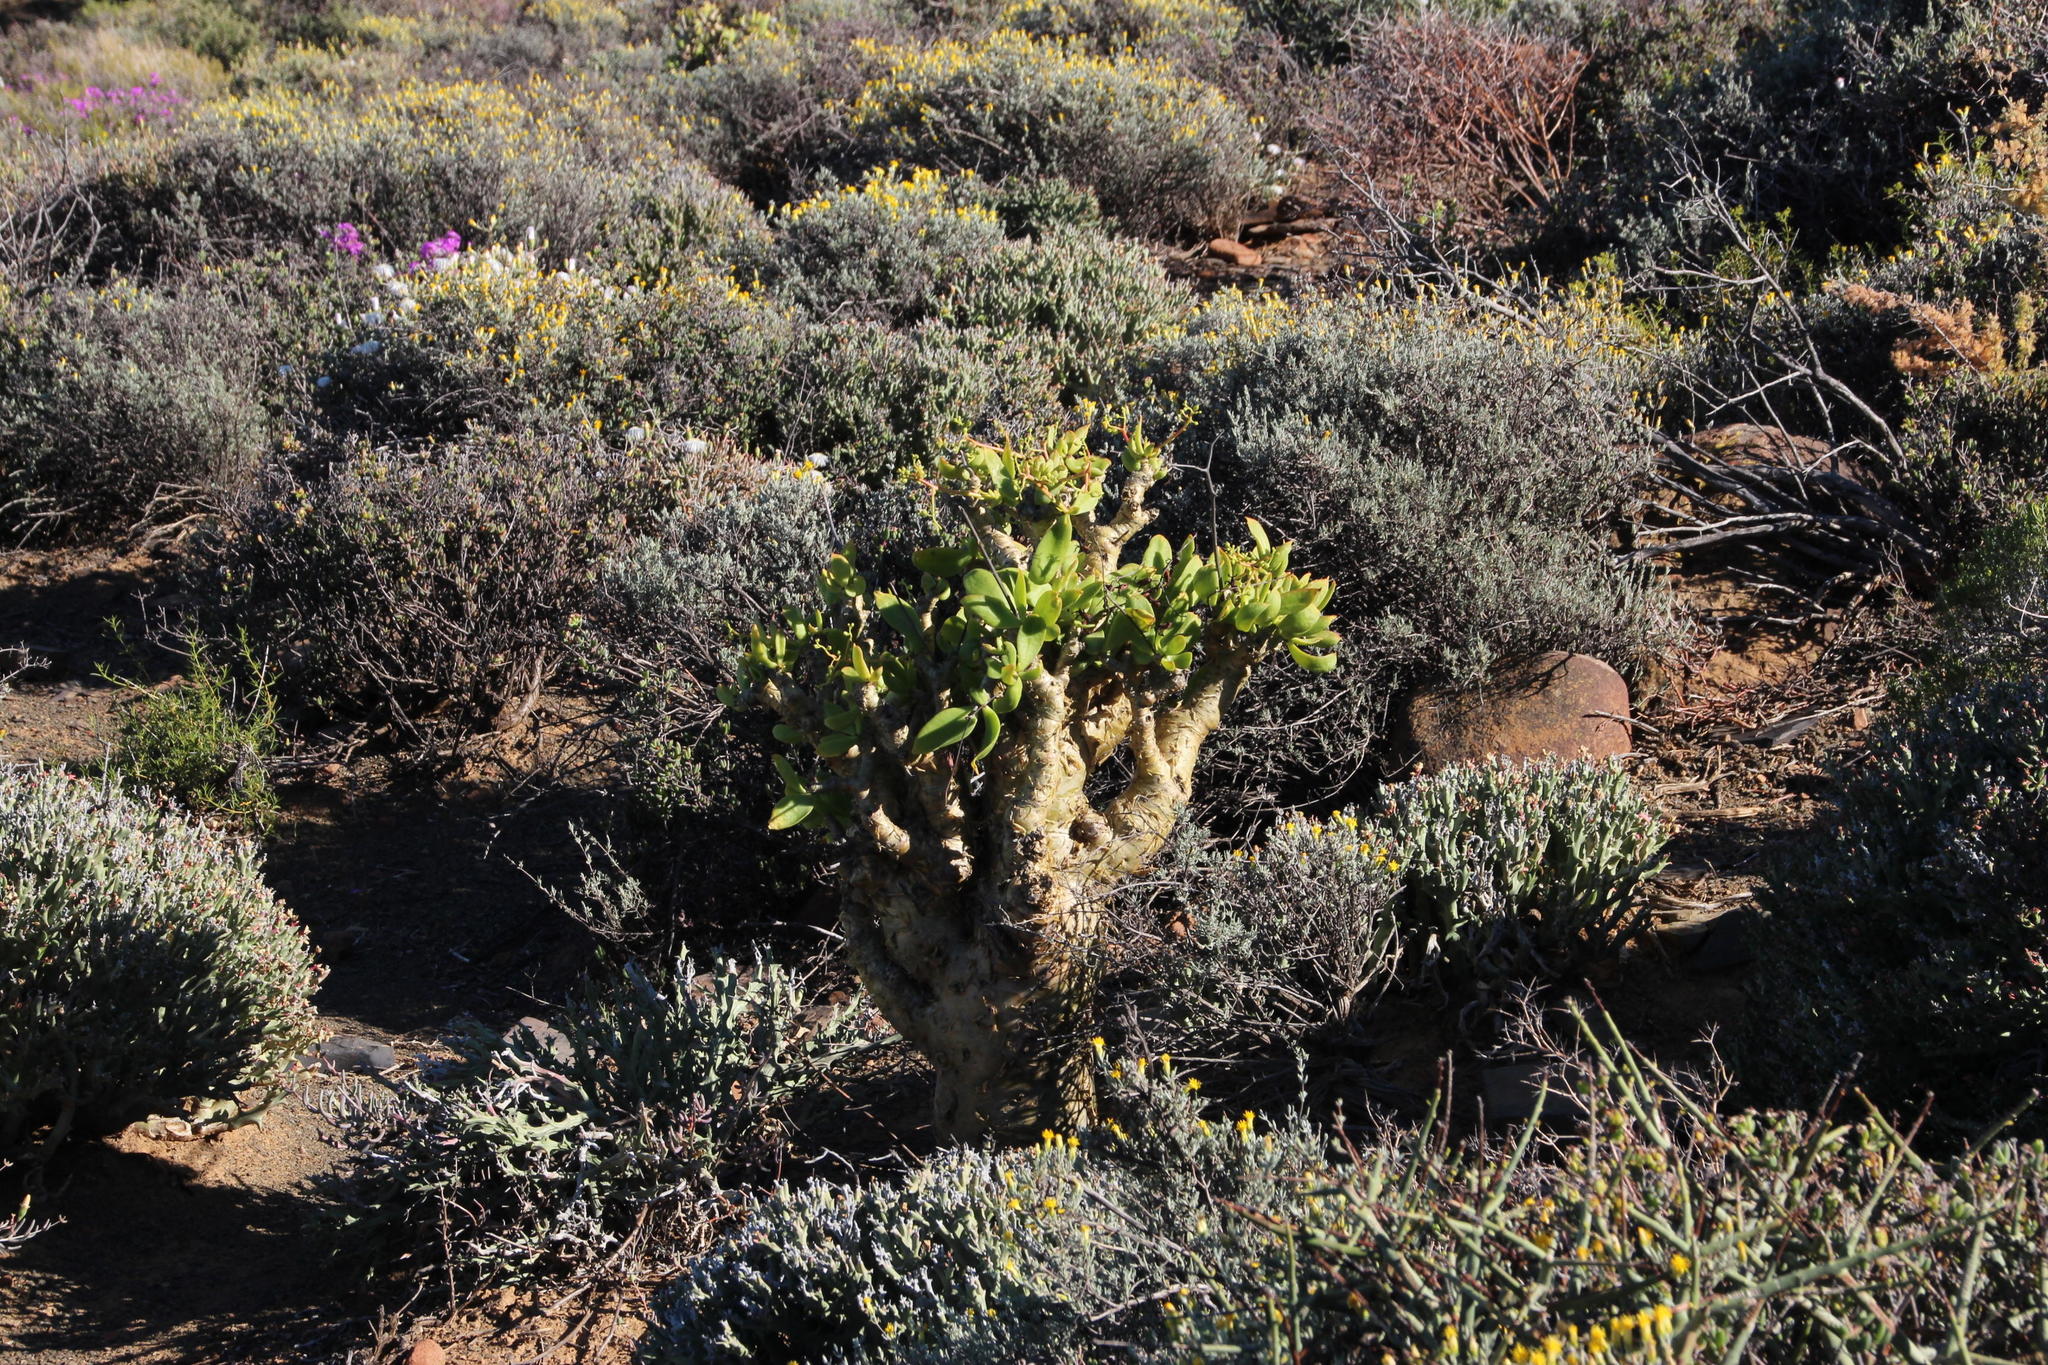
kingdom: Plantae
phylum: Tracheophyta
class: Magnoliopsida
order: Saxifragales
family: Crassulaceae
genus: Tylecodon
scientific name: Tylecodon paniculatus
